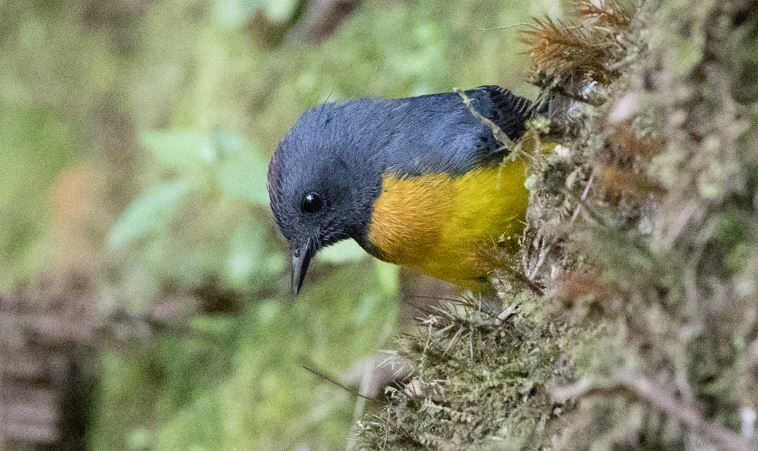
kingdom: Animalia
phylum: Chordata
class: Aves
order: Passeriformes
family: Parulidae
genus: Myioborus
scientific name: Myioborus miniatus
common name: Slate-throated redstart
